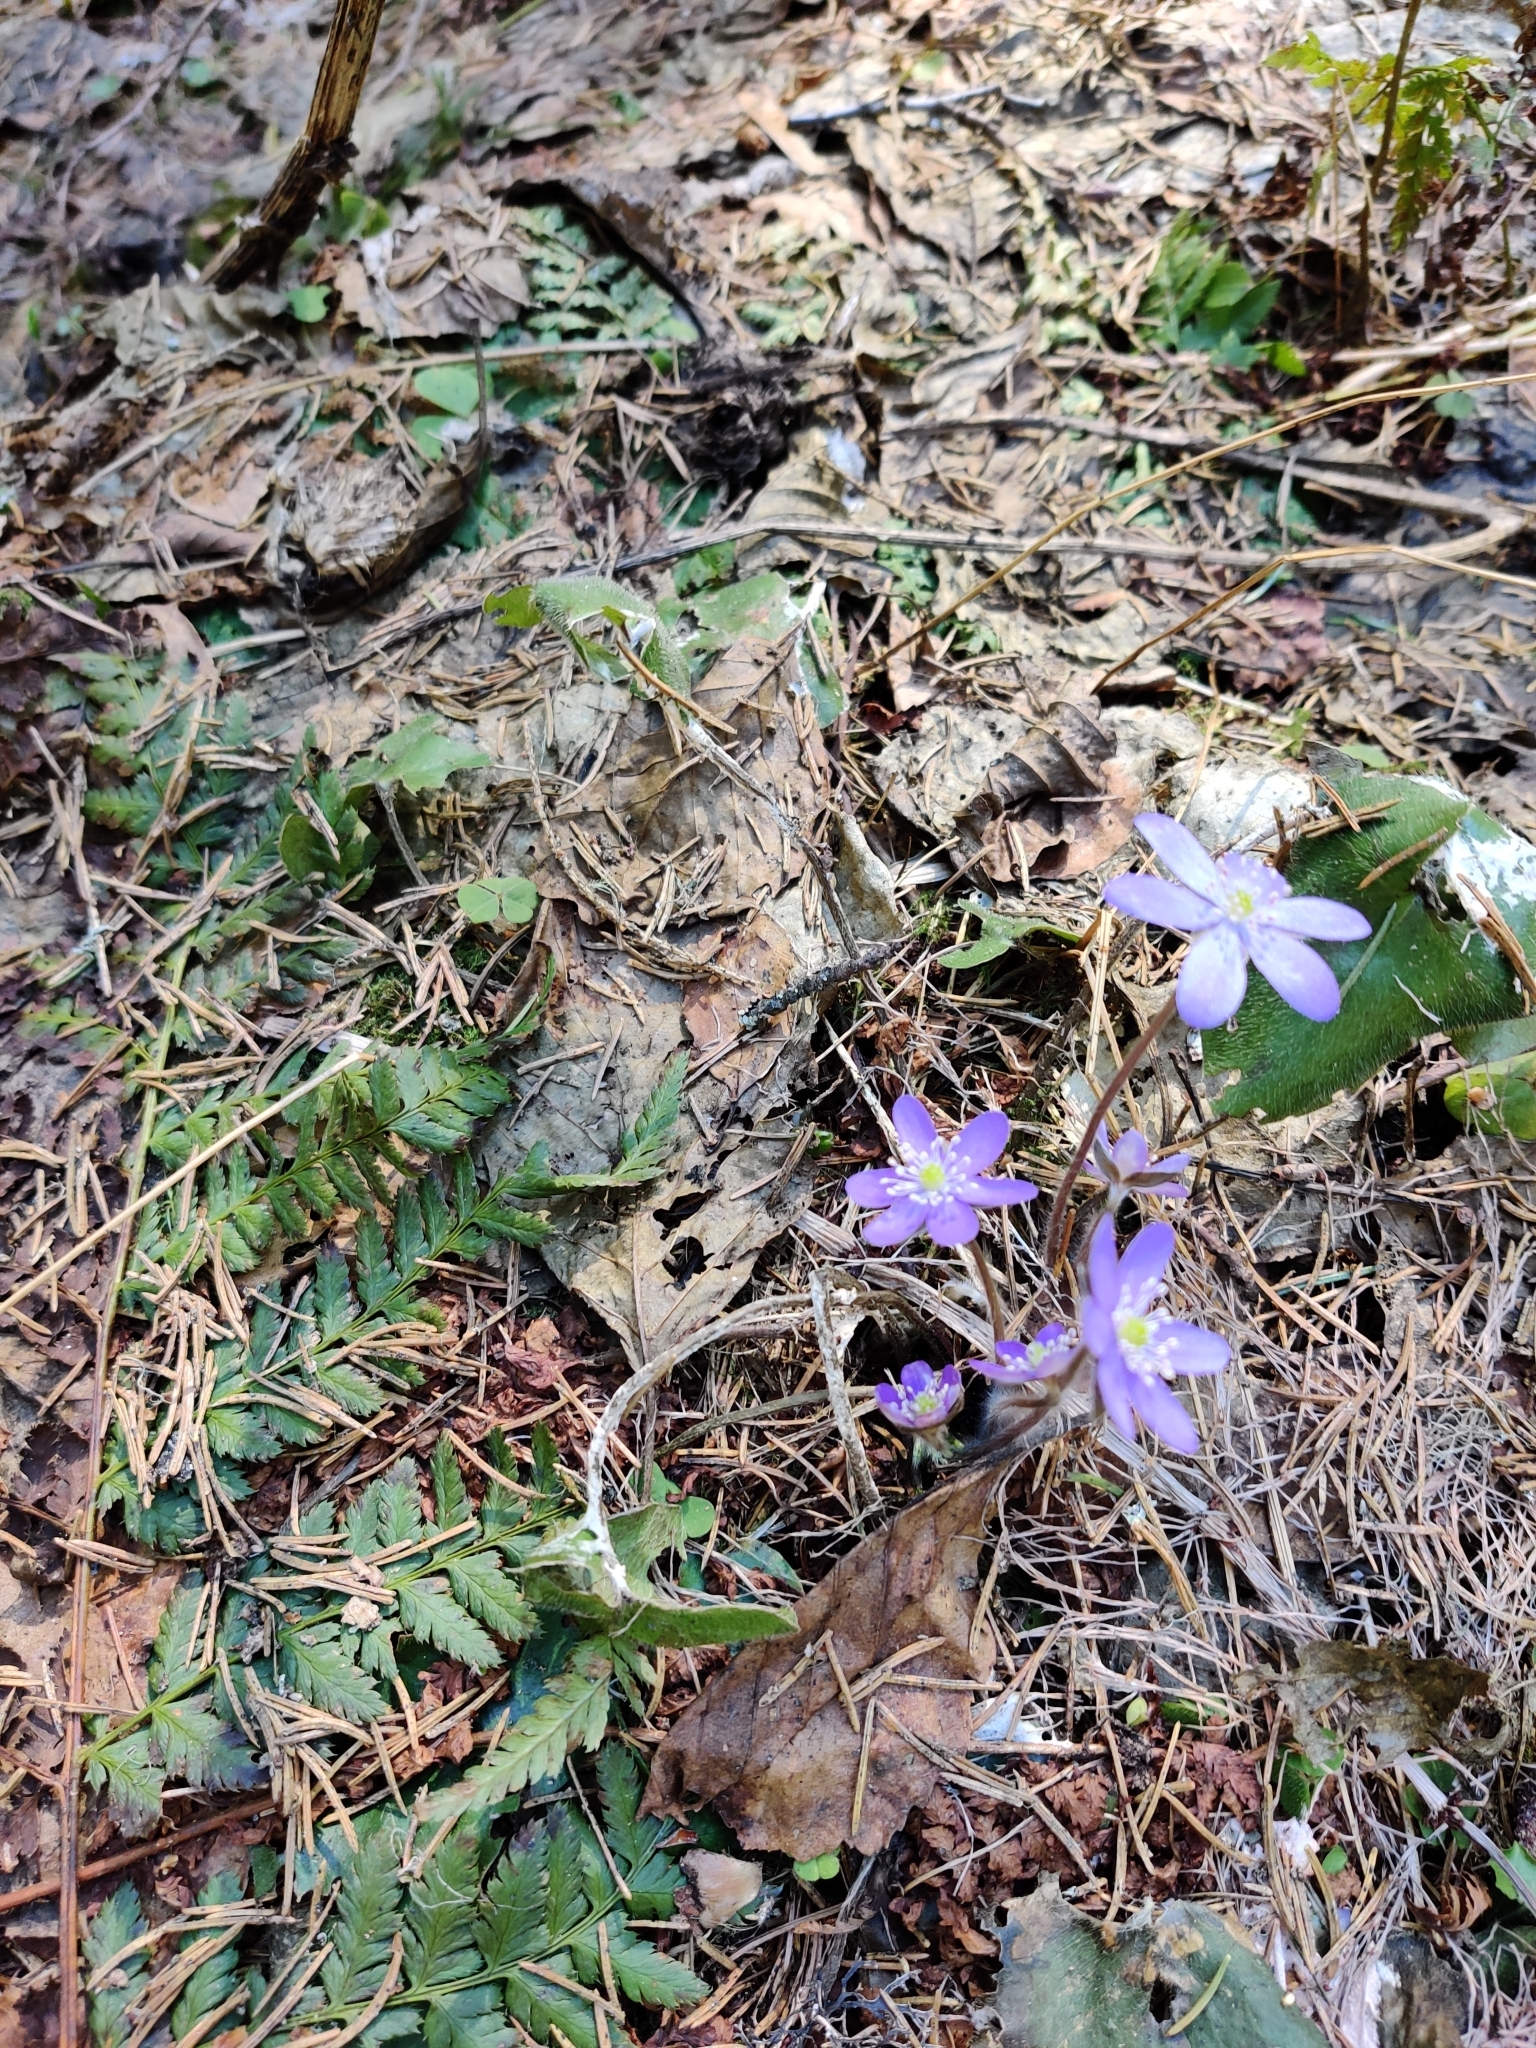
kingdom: Plantae
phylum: Tracheophyta
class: Magnoliopsida
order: Ranunculales
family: Ranunculaceae
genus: Hepatica
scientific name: Hepatica nobilis
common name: Liverleaf
